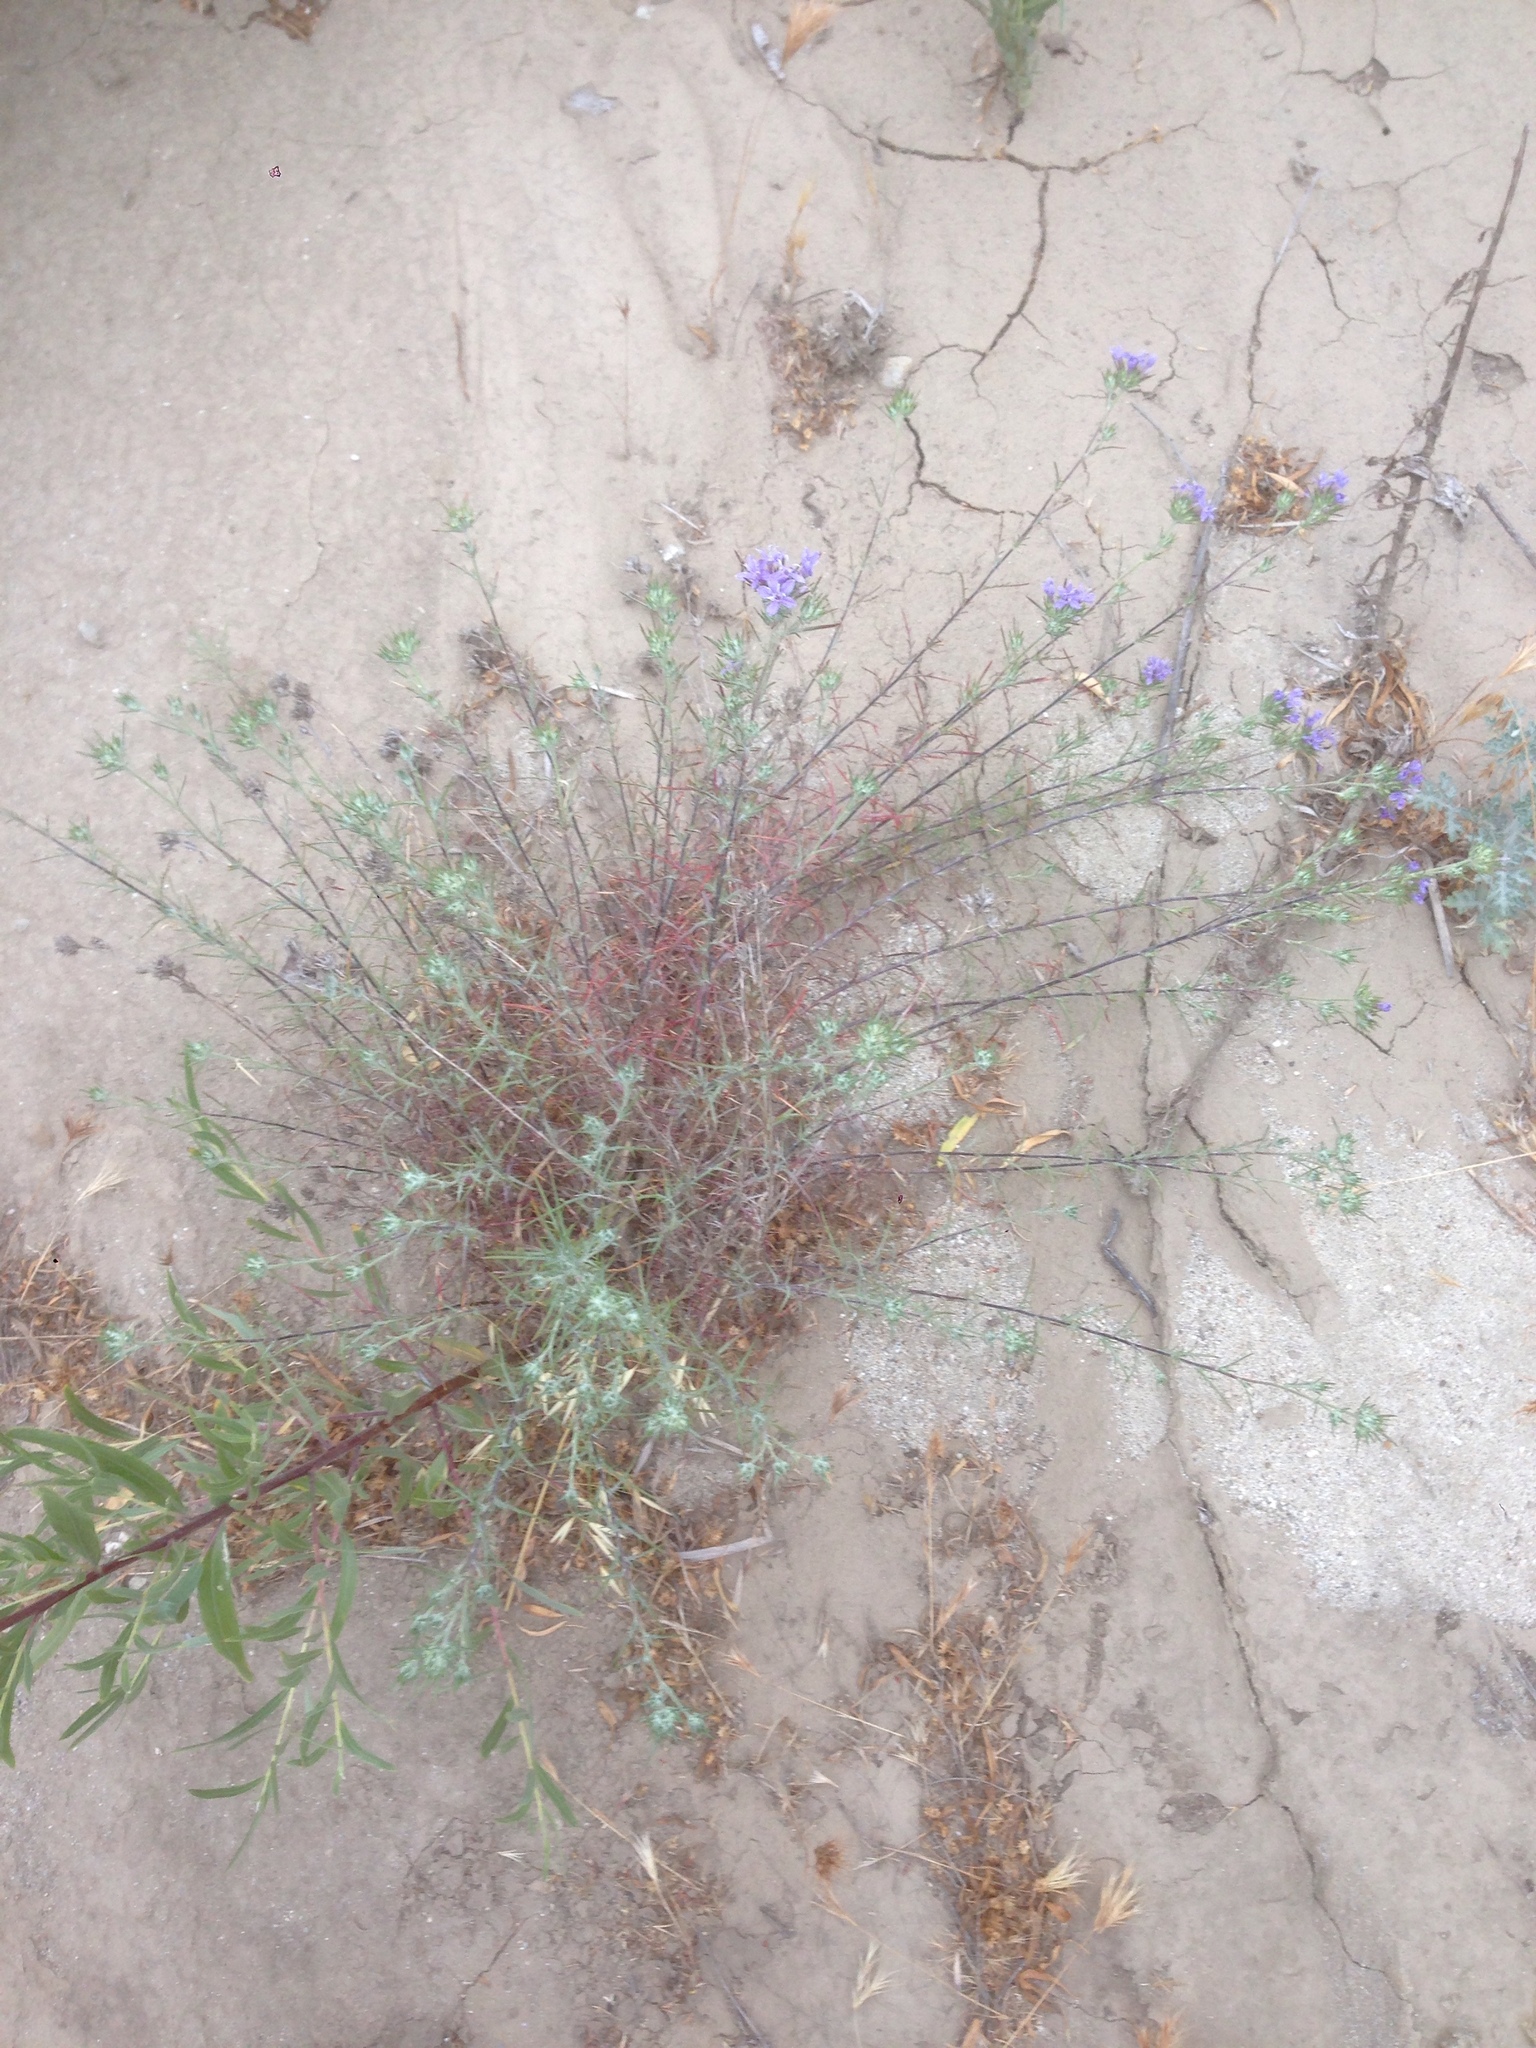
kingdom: Plantae
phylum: Tracheophyta
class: Magnoliopsida
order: Ericales
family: Polemoniaceae
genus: Eriastrum
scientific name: Eriastrum densifolium
